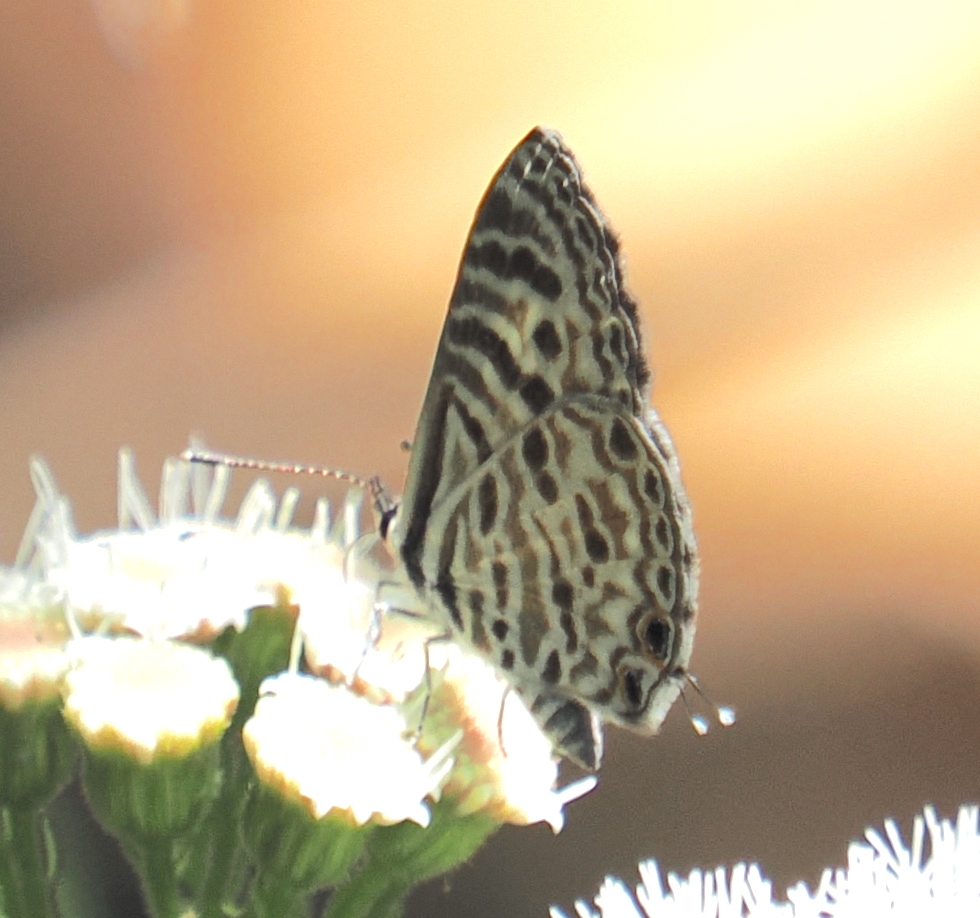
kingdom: Animalia
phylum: Arthropoda
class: Insecta
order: Lepidoptera
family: Lycaenidae
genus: Leptotes
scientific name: Leptotes plinius
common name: Zebra blue
